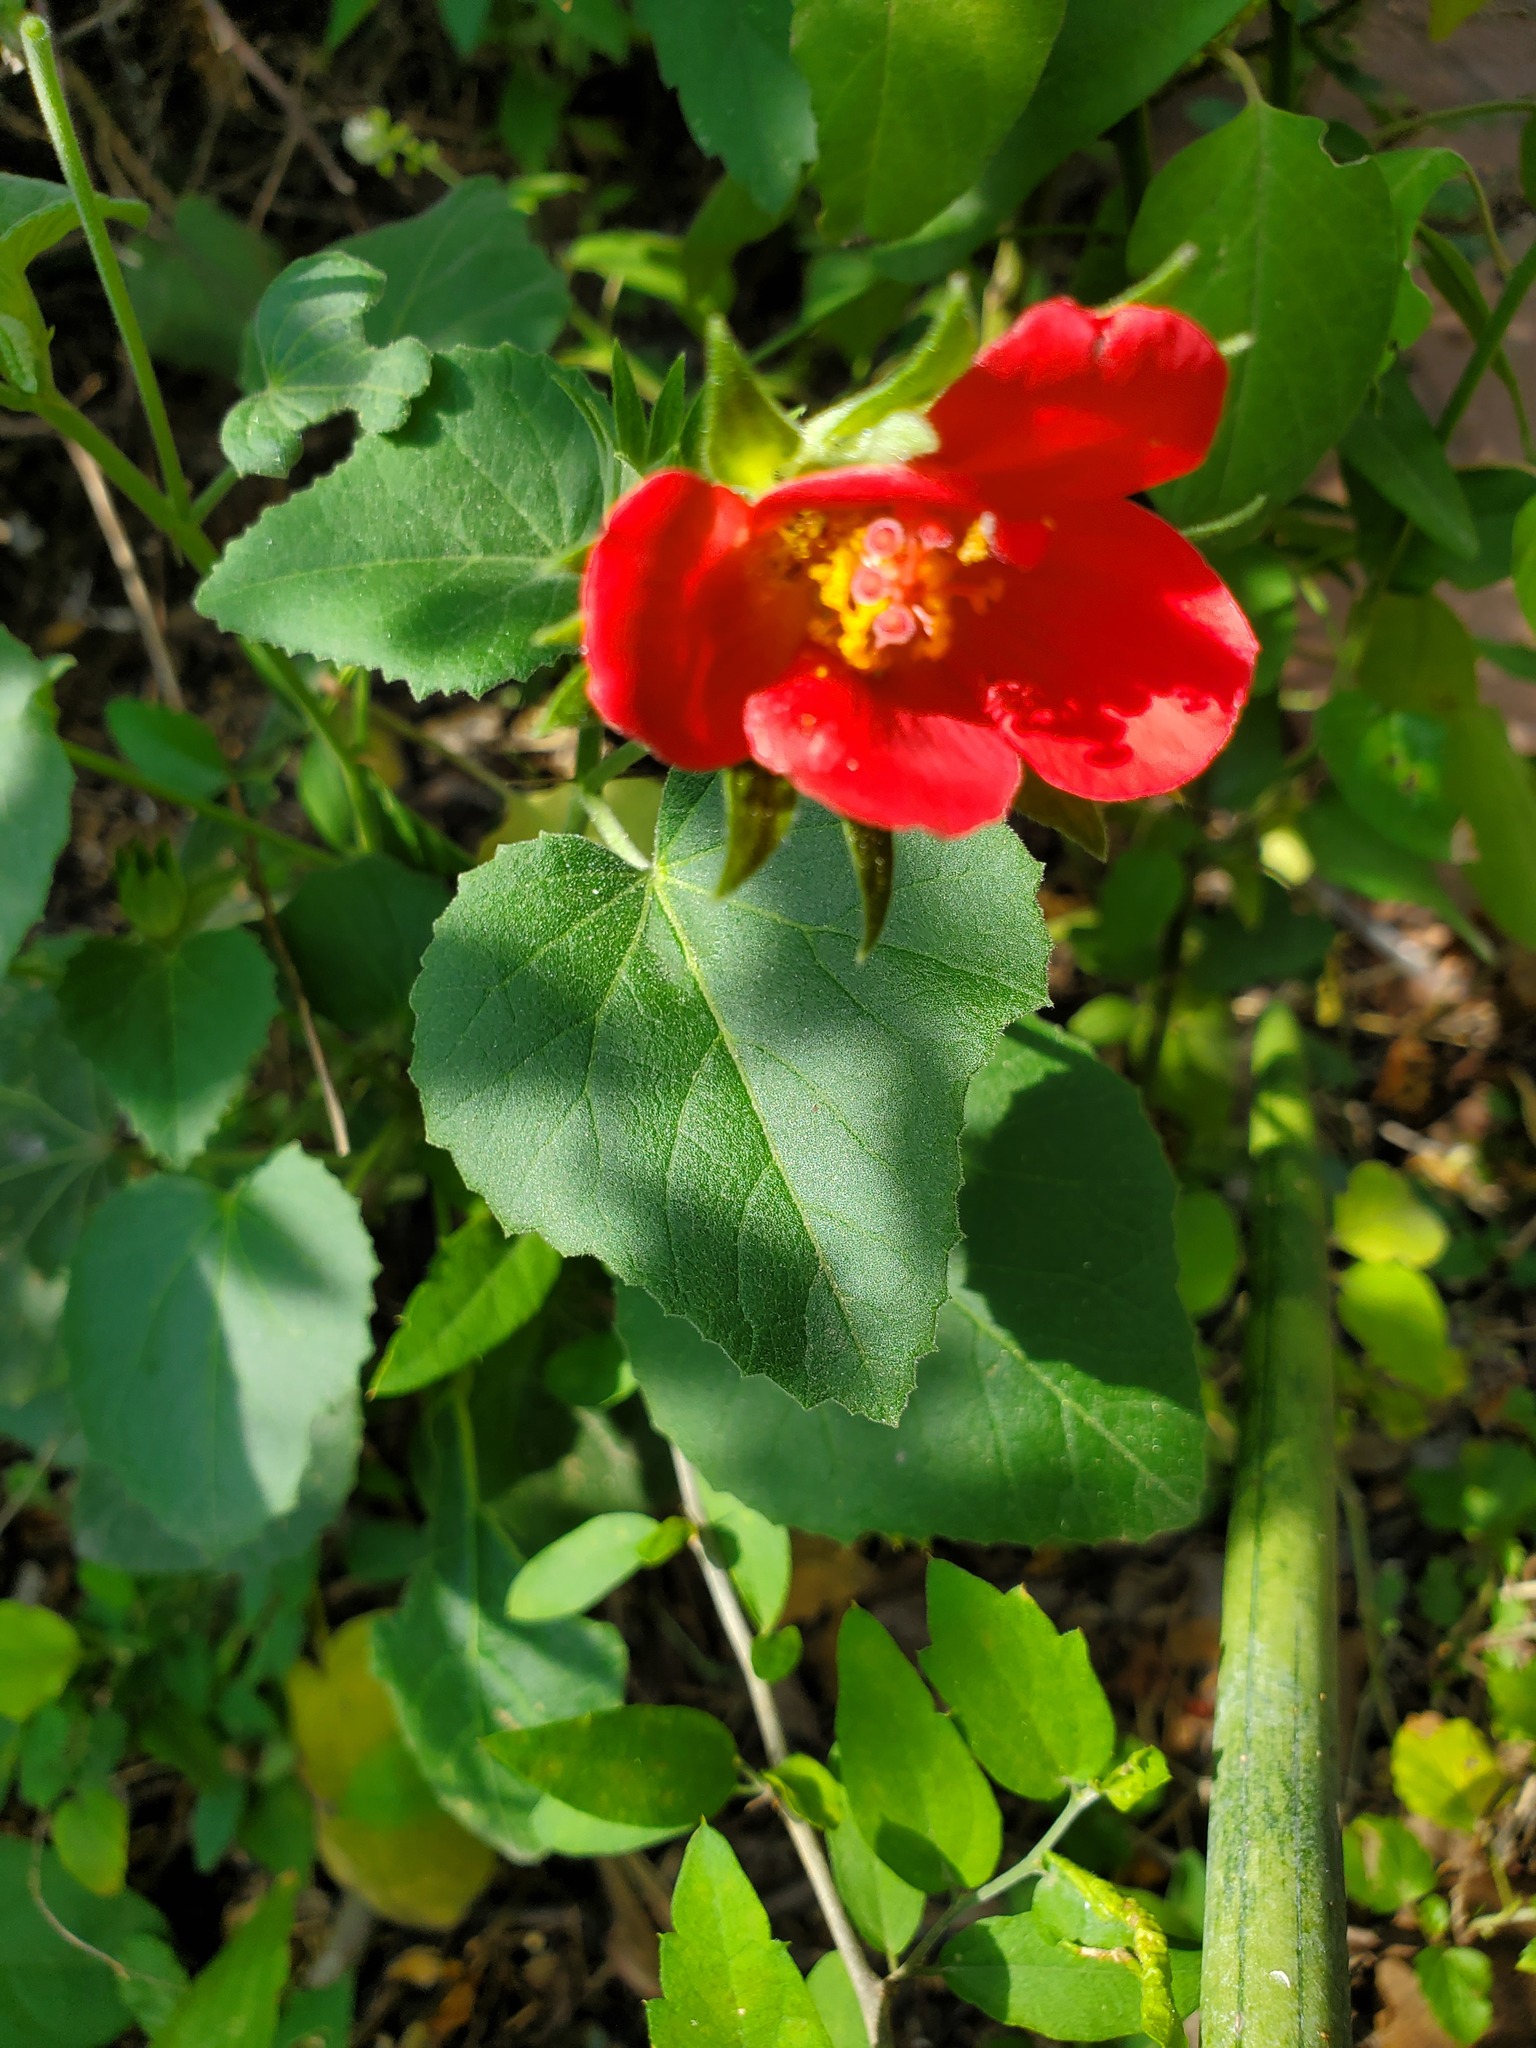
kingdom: Plantae
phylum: Tracheophyta
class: Magnoliopsida
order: Malvales
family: Malvaceae
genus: Hibiscus
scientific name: Hibiscus martianus
